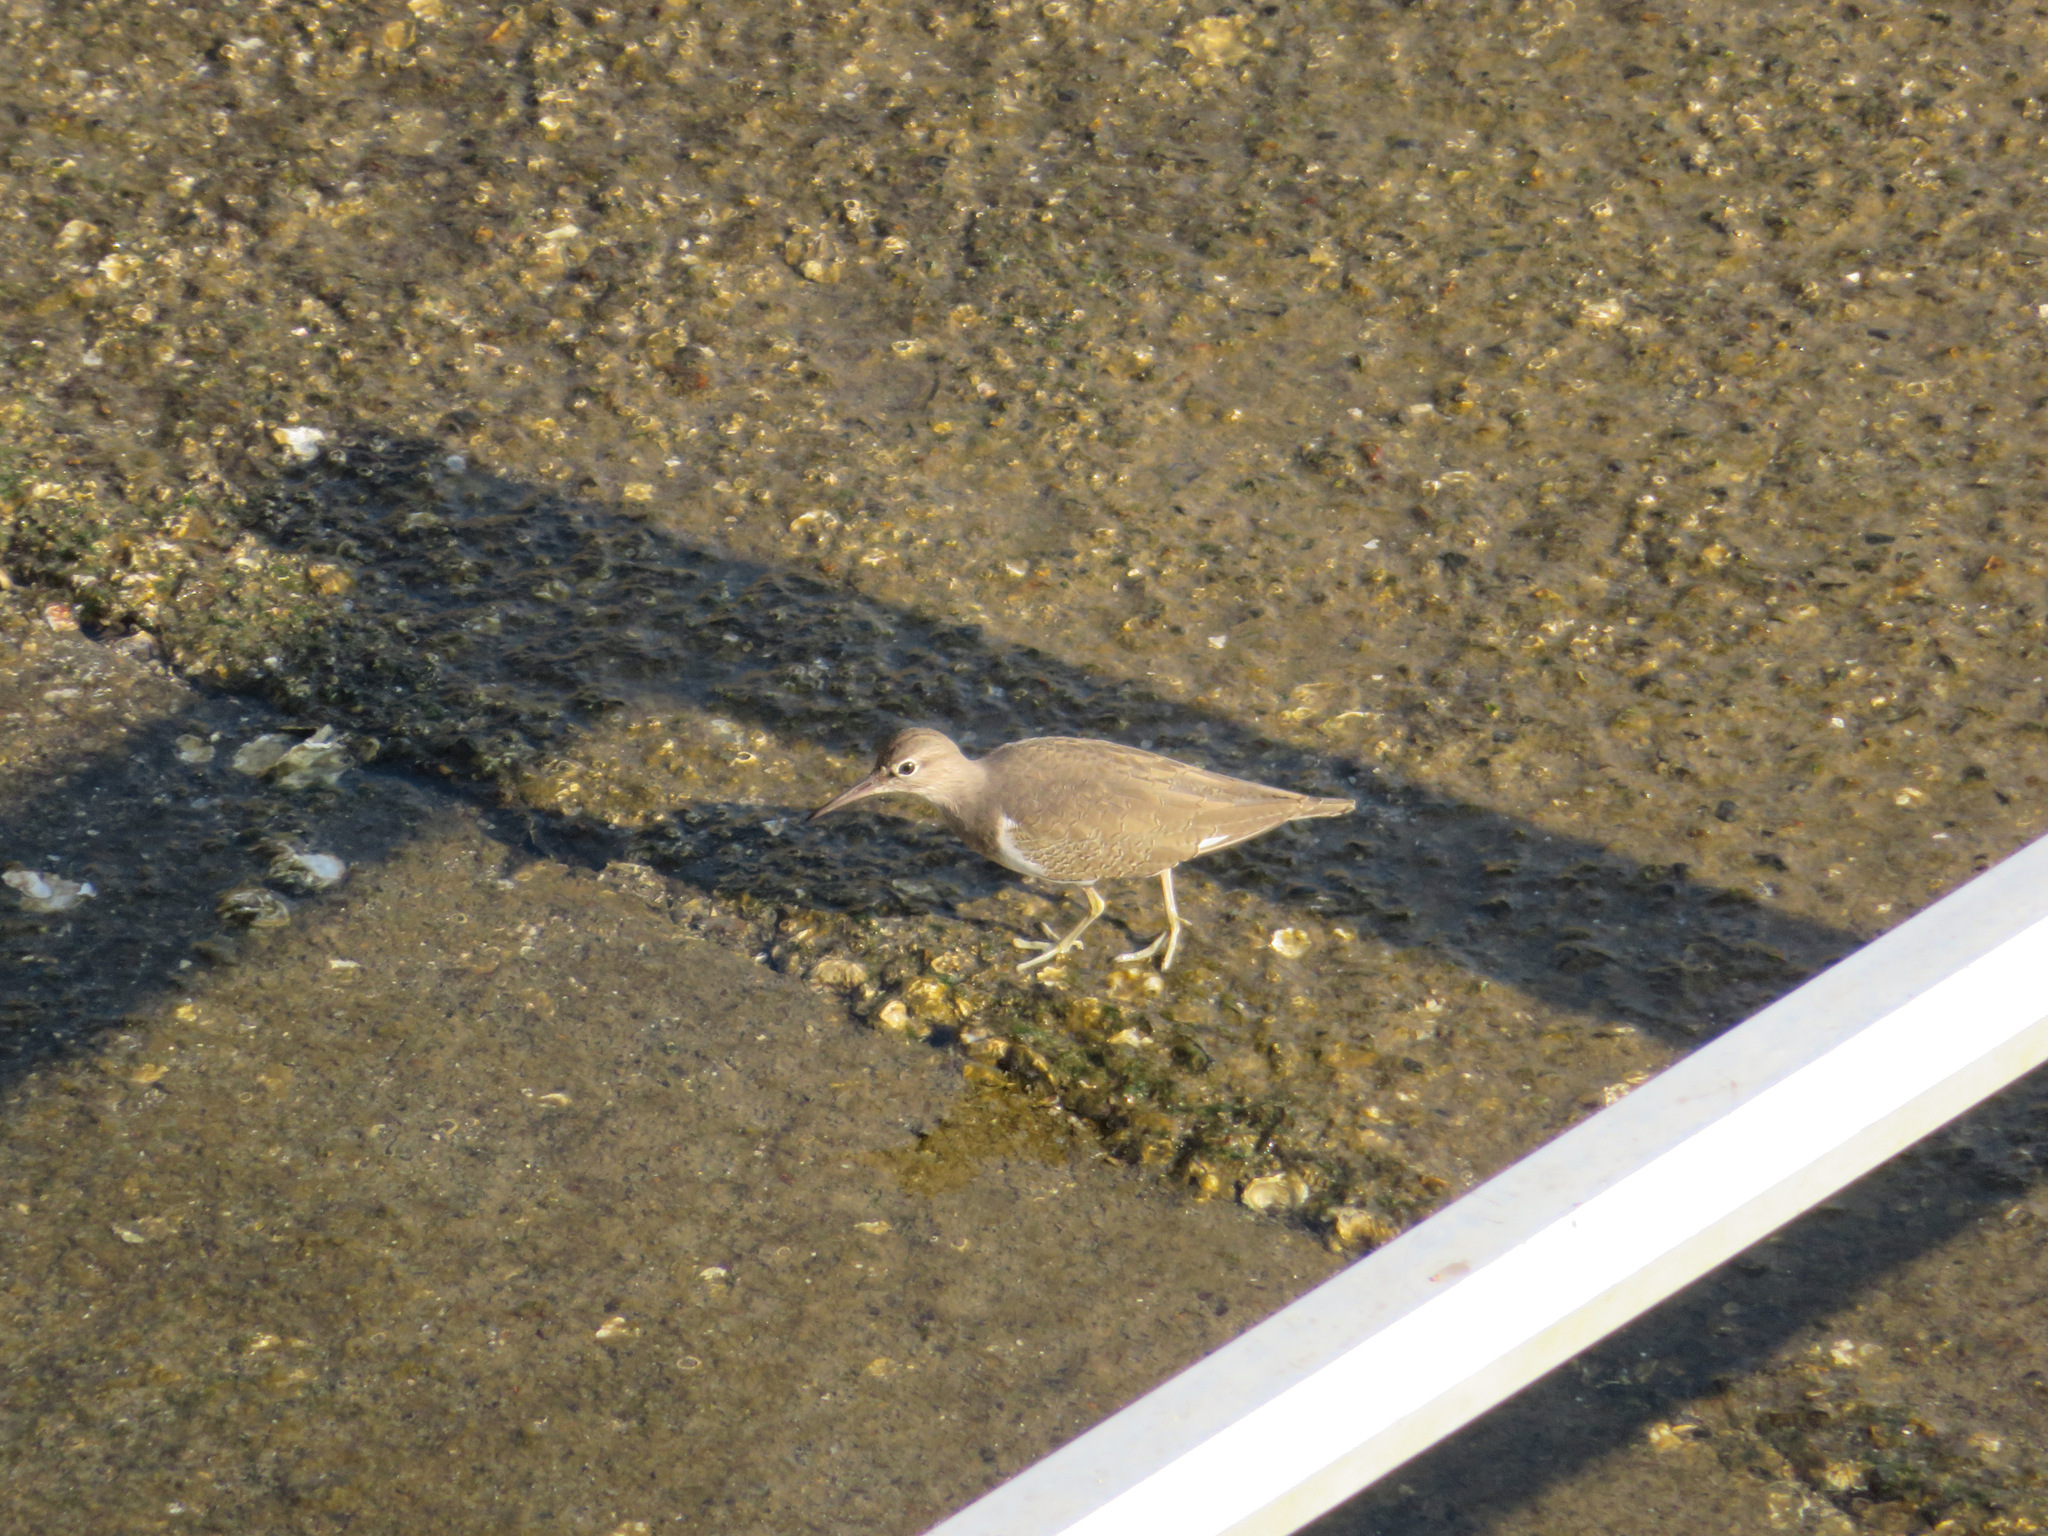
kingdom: Animalia
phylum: Chordata
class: Aves
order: Charadriiformes
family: Scolopacidae
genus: Actitis
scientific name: Actitis hypoleucos
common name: Common sandpiper
